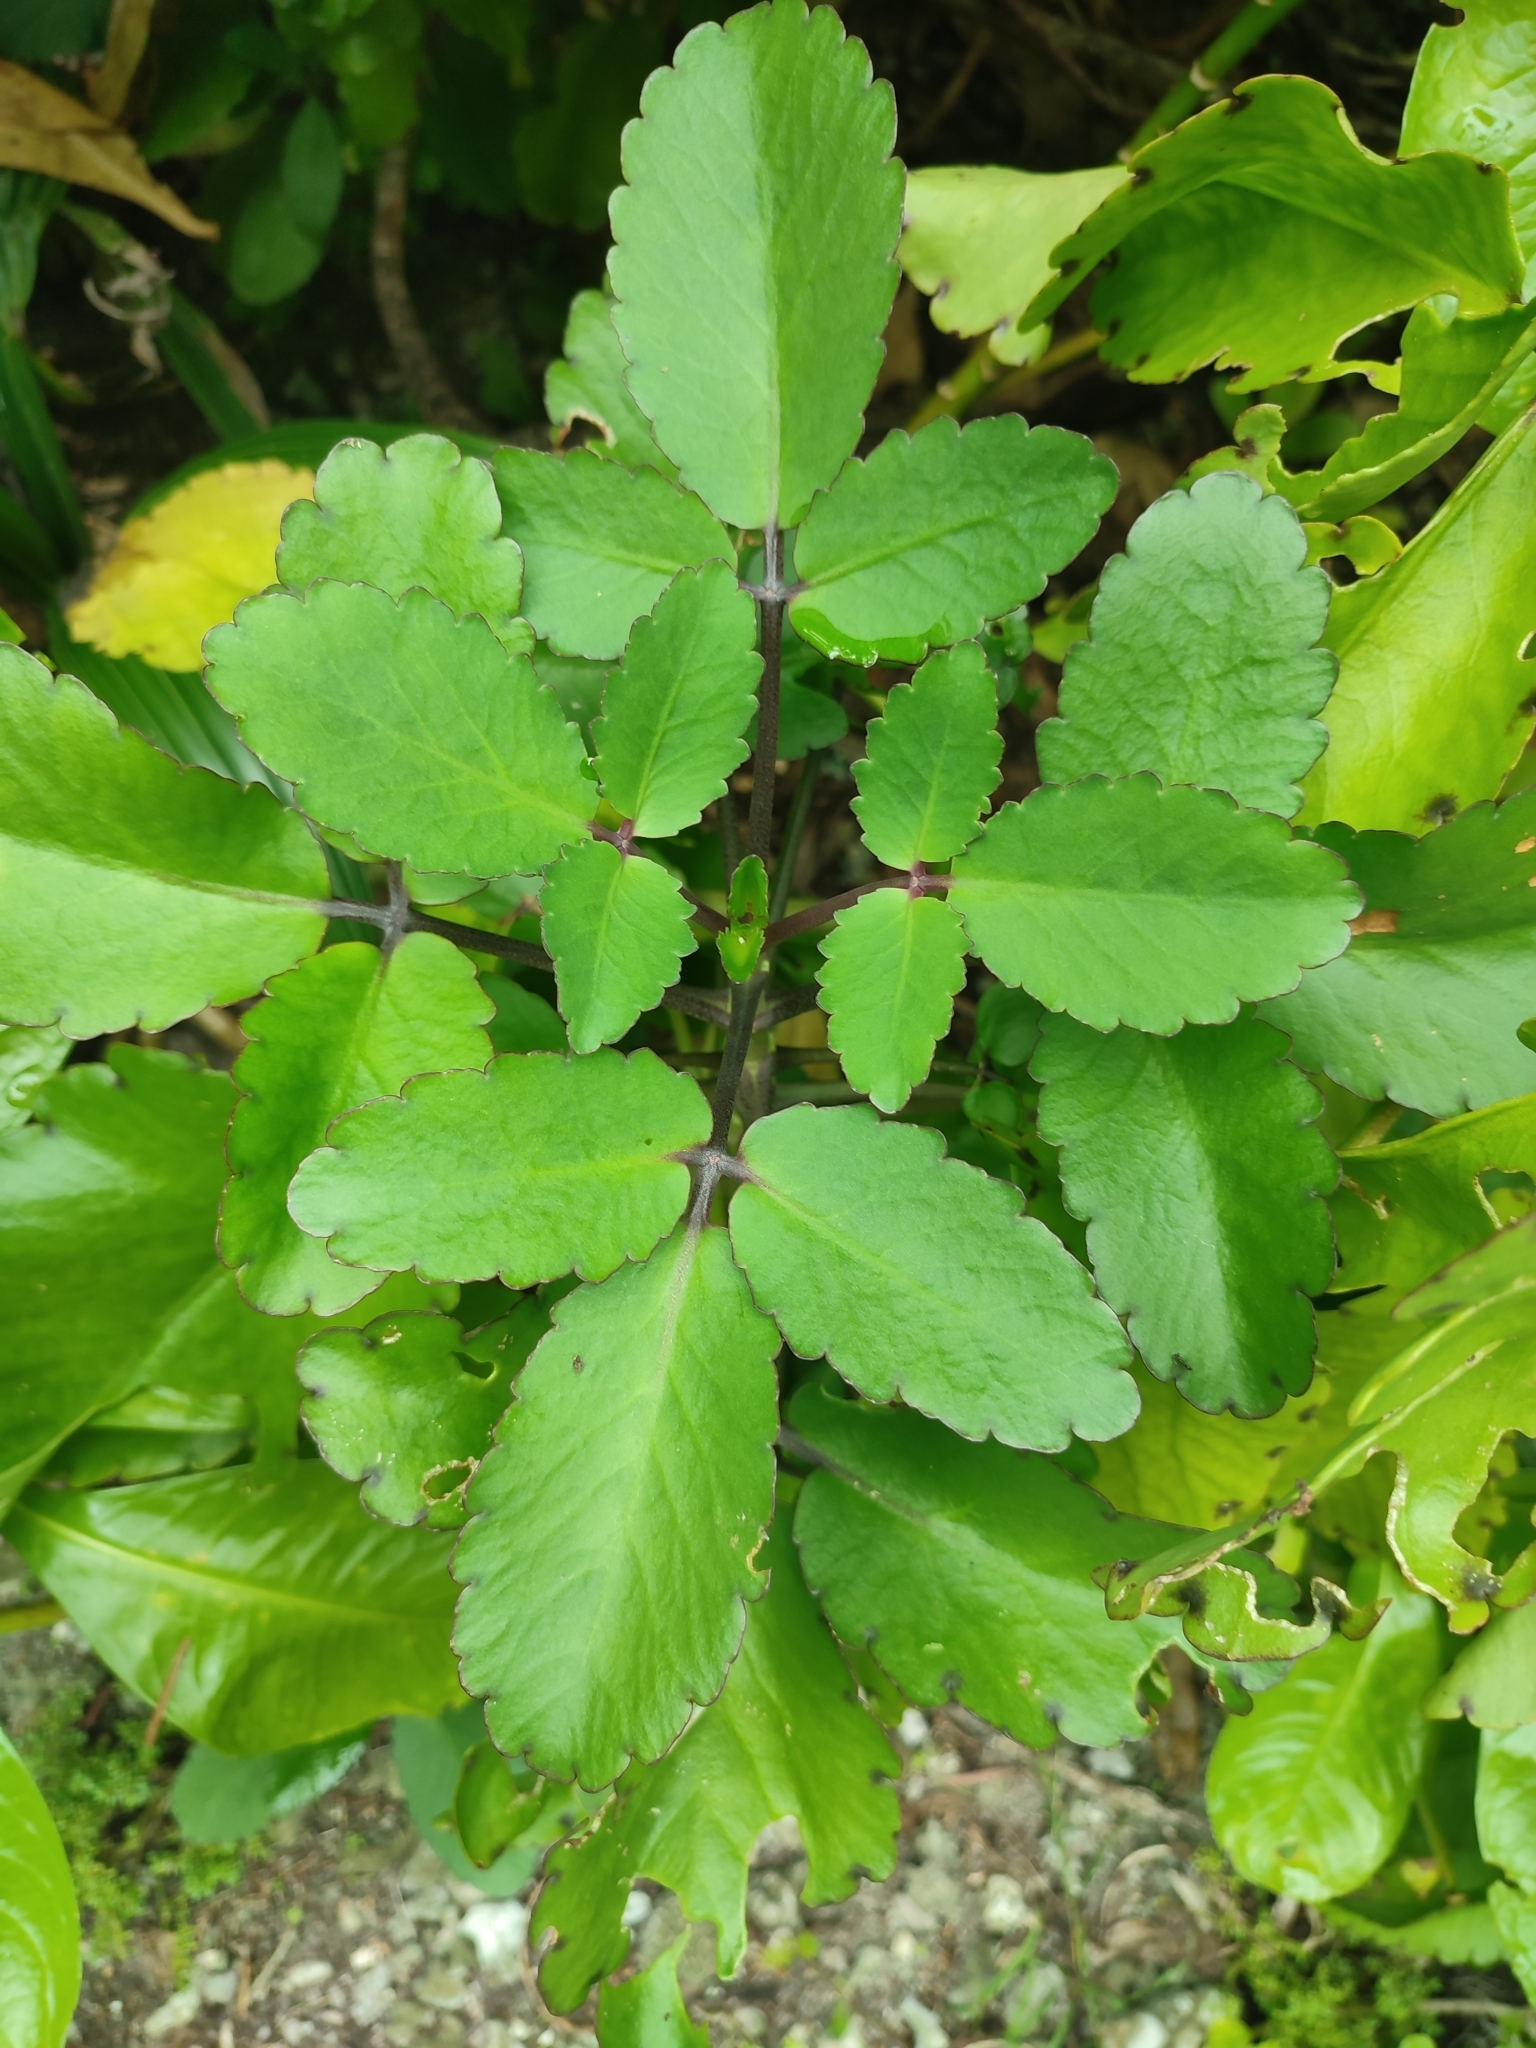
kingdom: Plantae
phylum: Tracheophyta
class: Magnoliopsida
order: Saxifragales
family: Crassulaceae
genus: Kalanchoe
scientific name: Kalanchoe pinnata
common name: Cathedral bells
